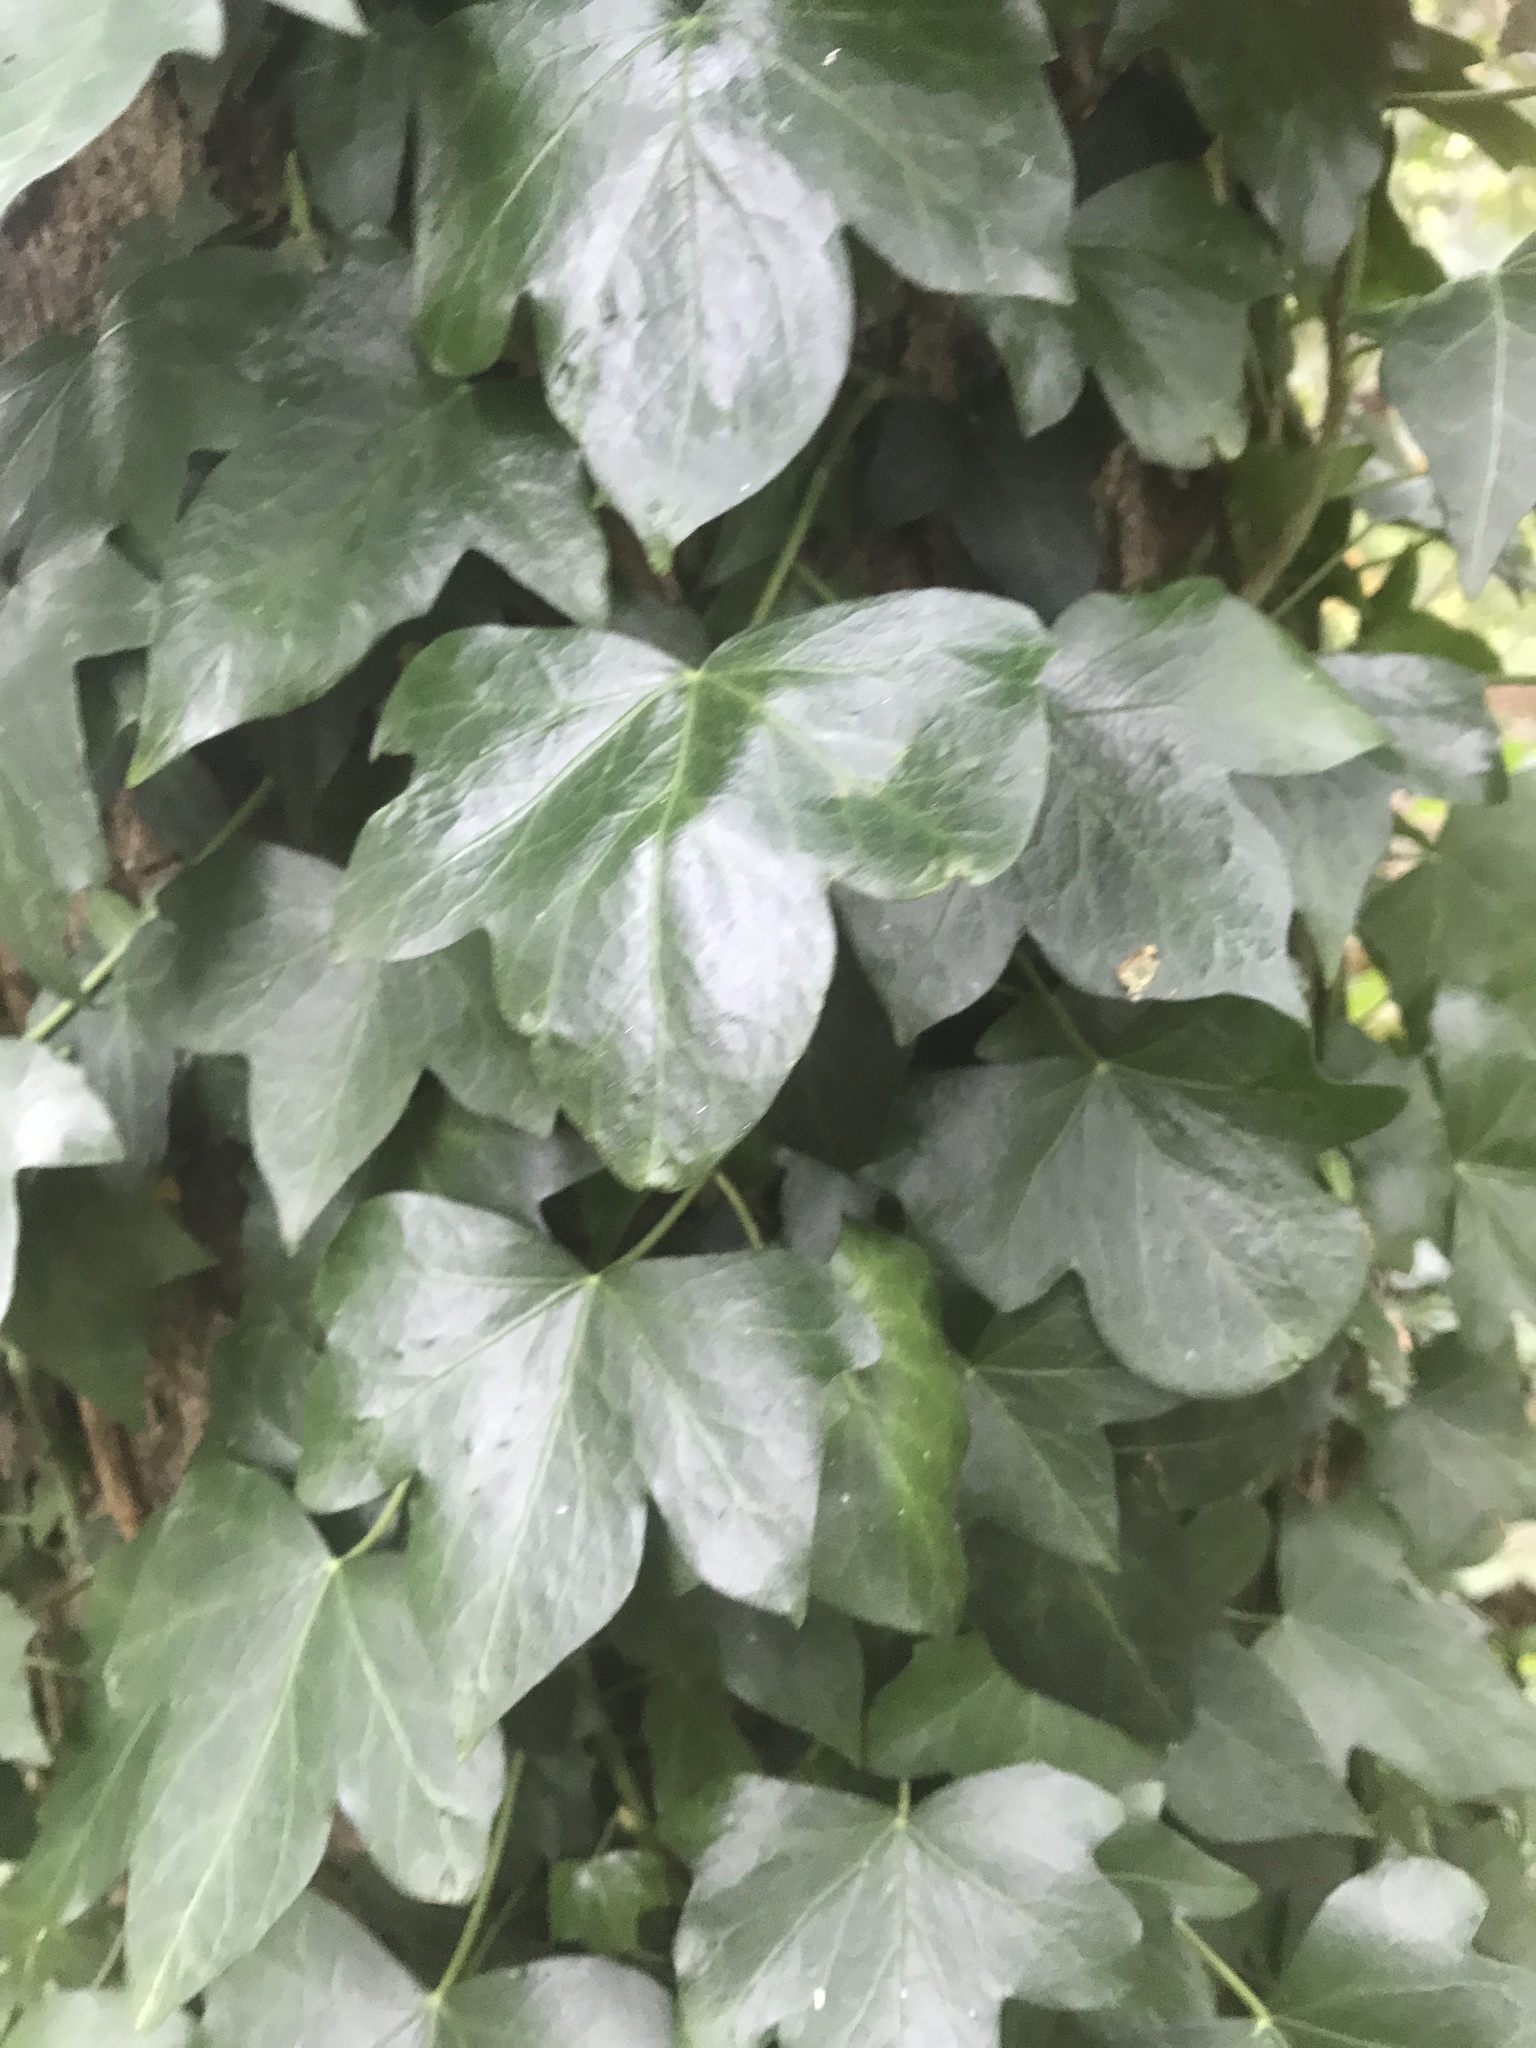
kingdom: Plantae
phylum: Tracheophyta
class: Magnoliopsida
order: Apiales
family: Araliaceae
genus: Hedera
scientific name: Hedera helix
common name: Ivy
